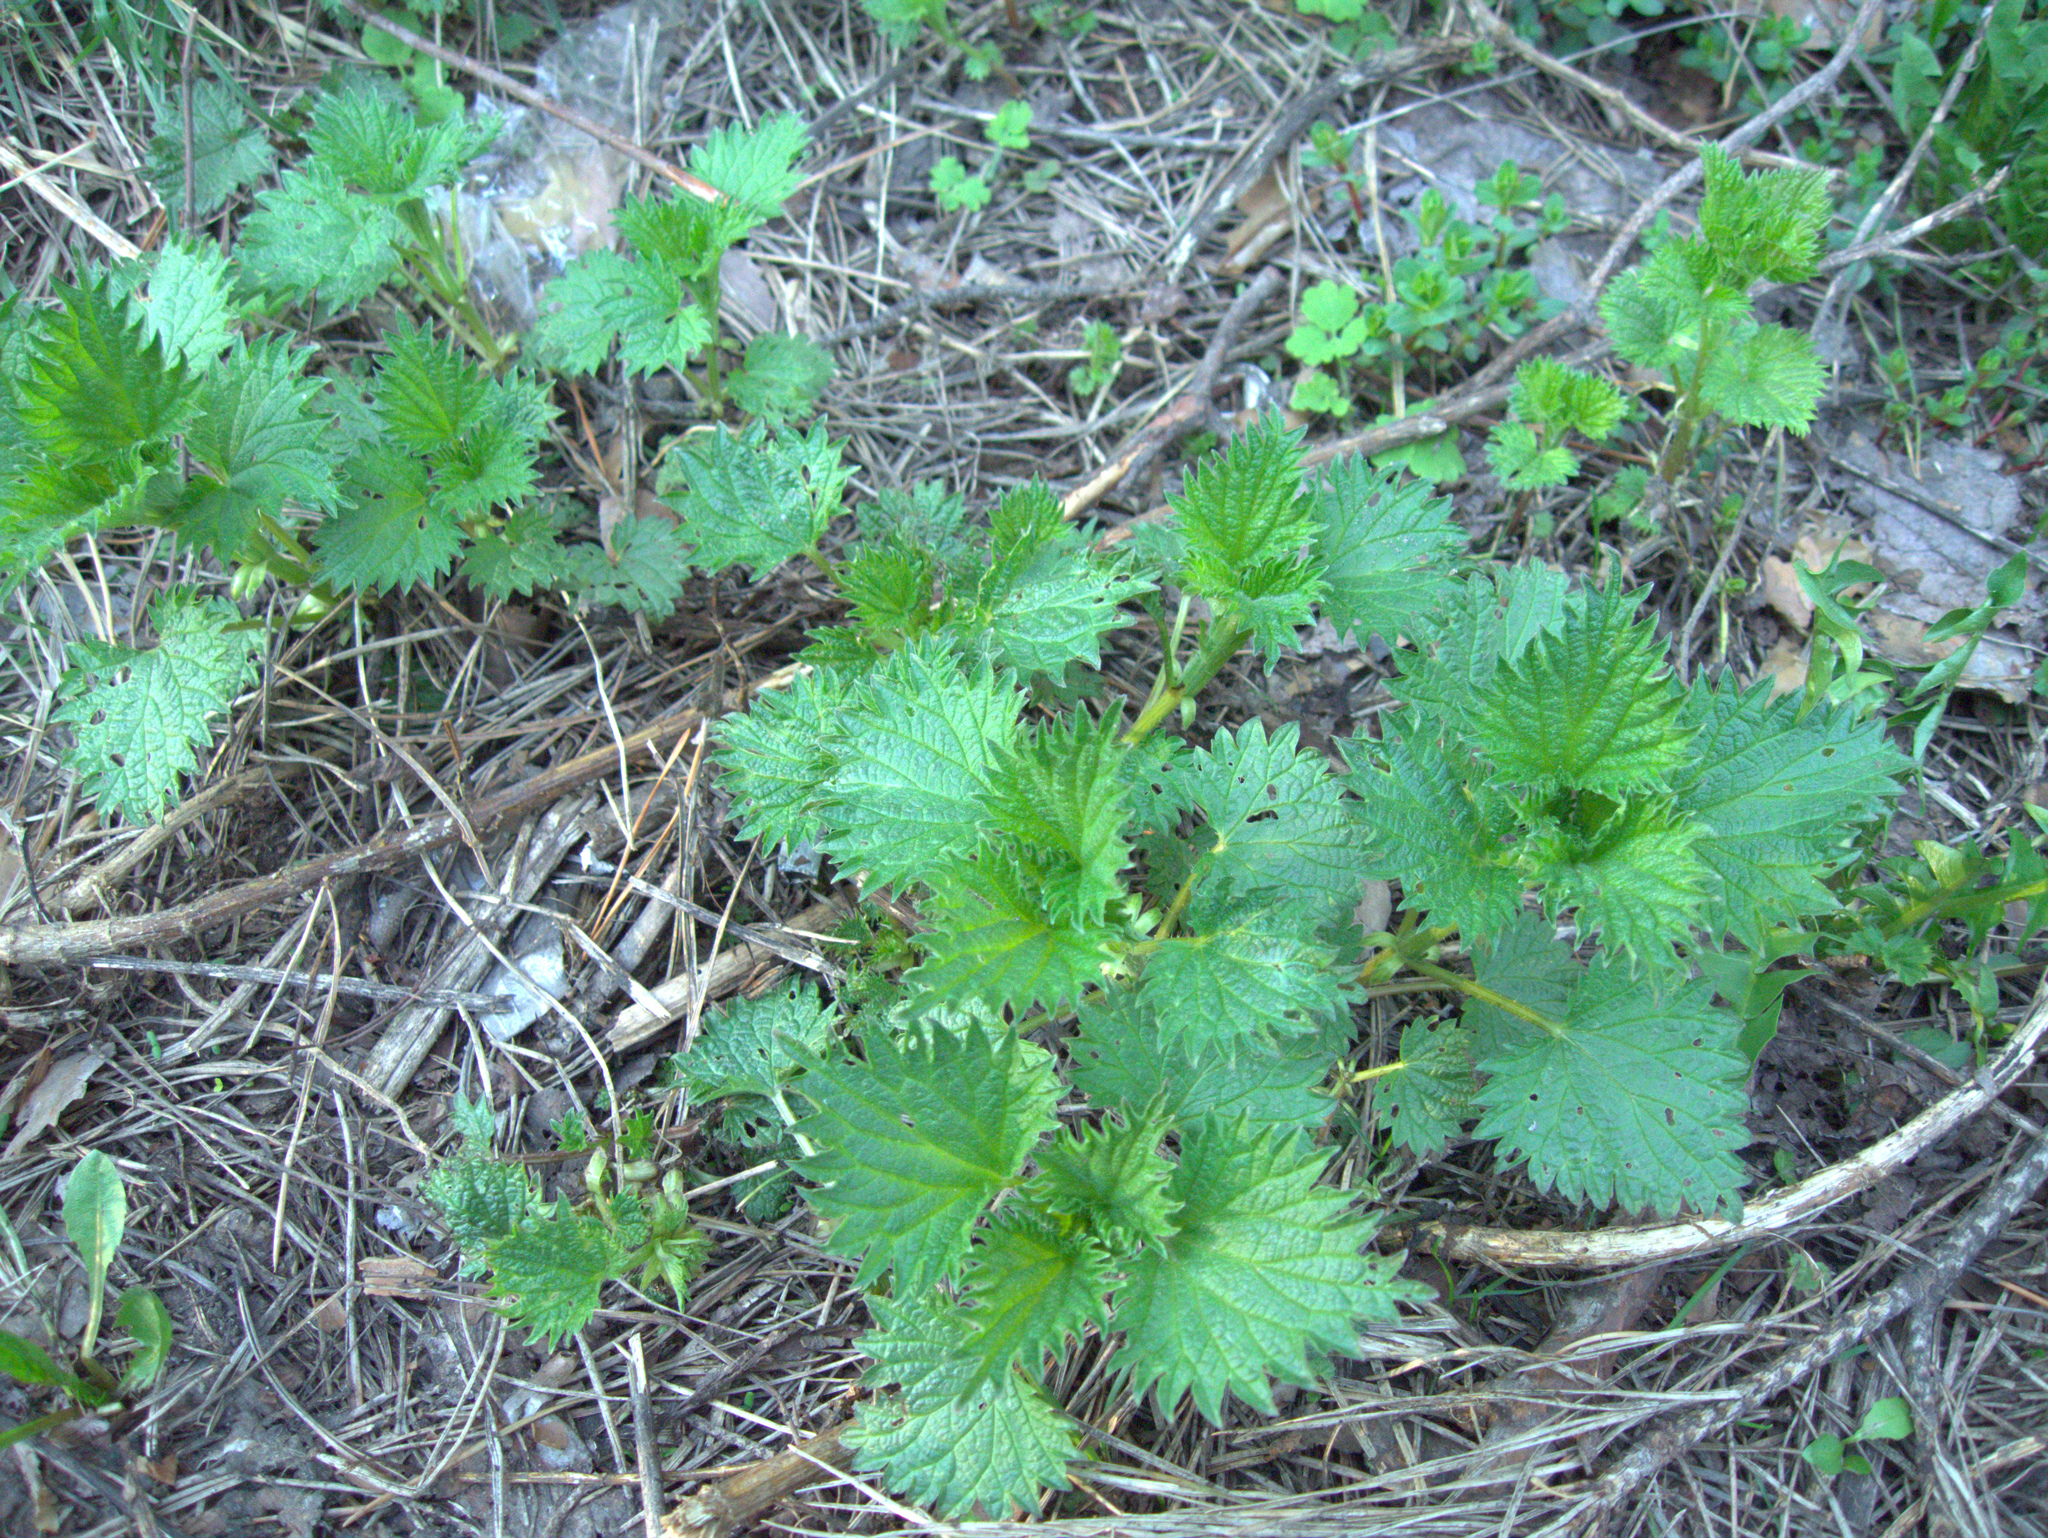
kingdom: Plantae
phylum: Tracheophyta
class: Magnoliopsida
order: Rosales
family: Urticaceae
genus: Urtica
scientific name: Urtica dioica
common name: Common nettle
